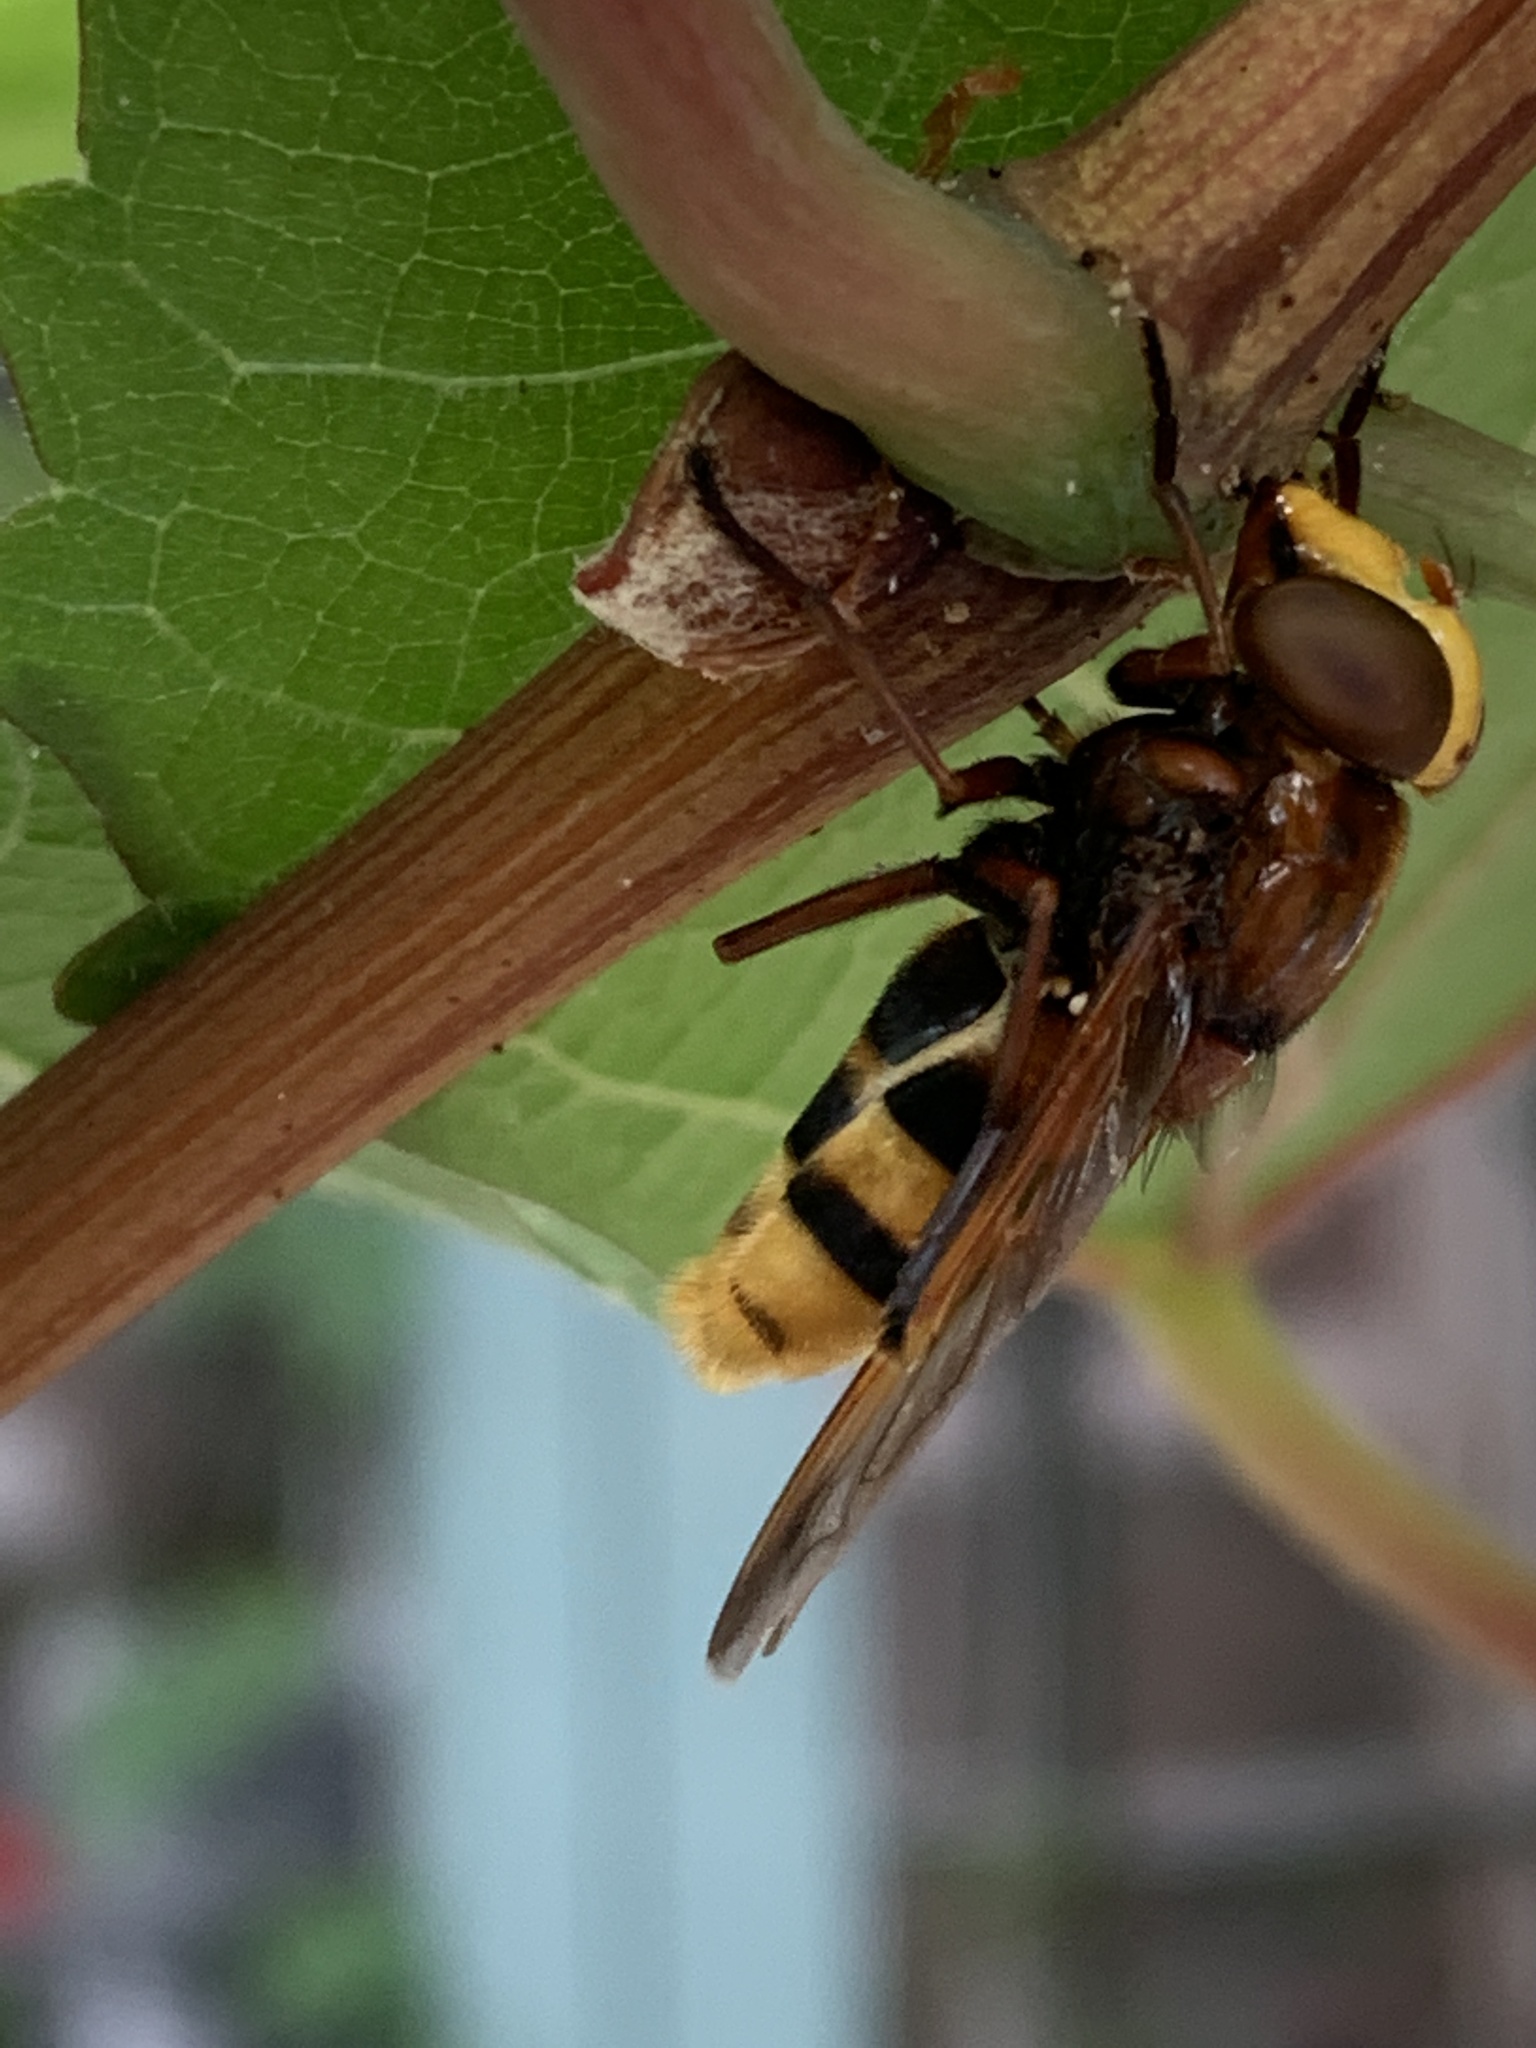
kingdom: Animalia
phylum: Arthropoda
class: Insecta
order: Diptera
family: Syrphidae
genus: Volucella
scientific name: Volucella zonaria
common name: Hornet hoverfly
